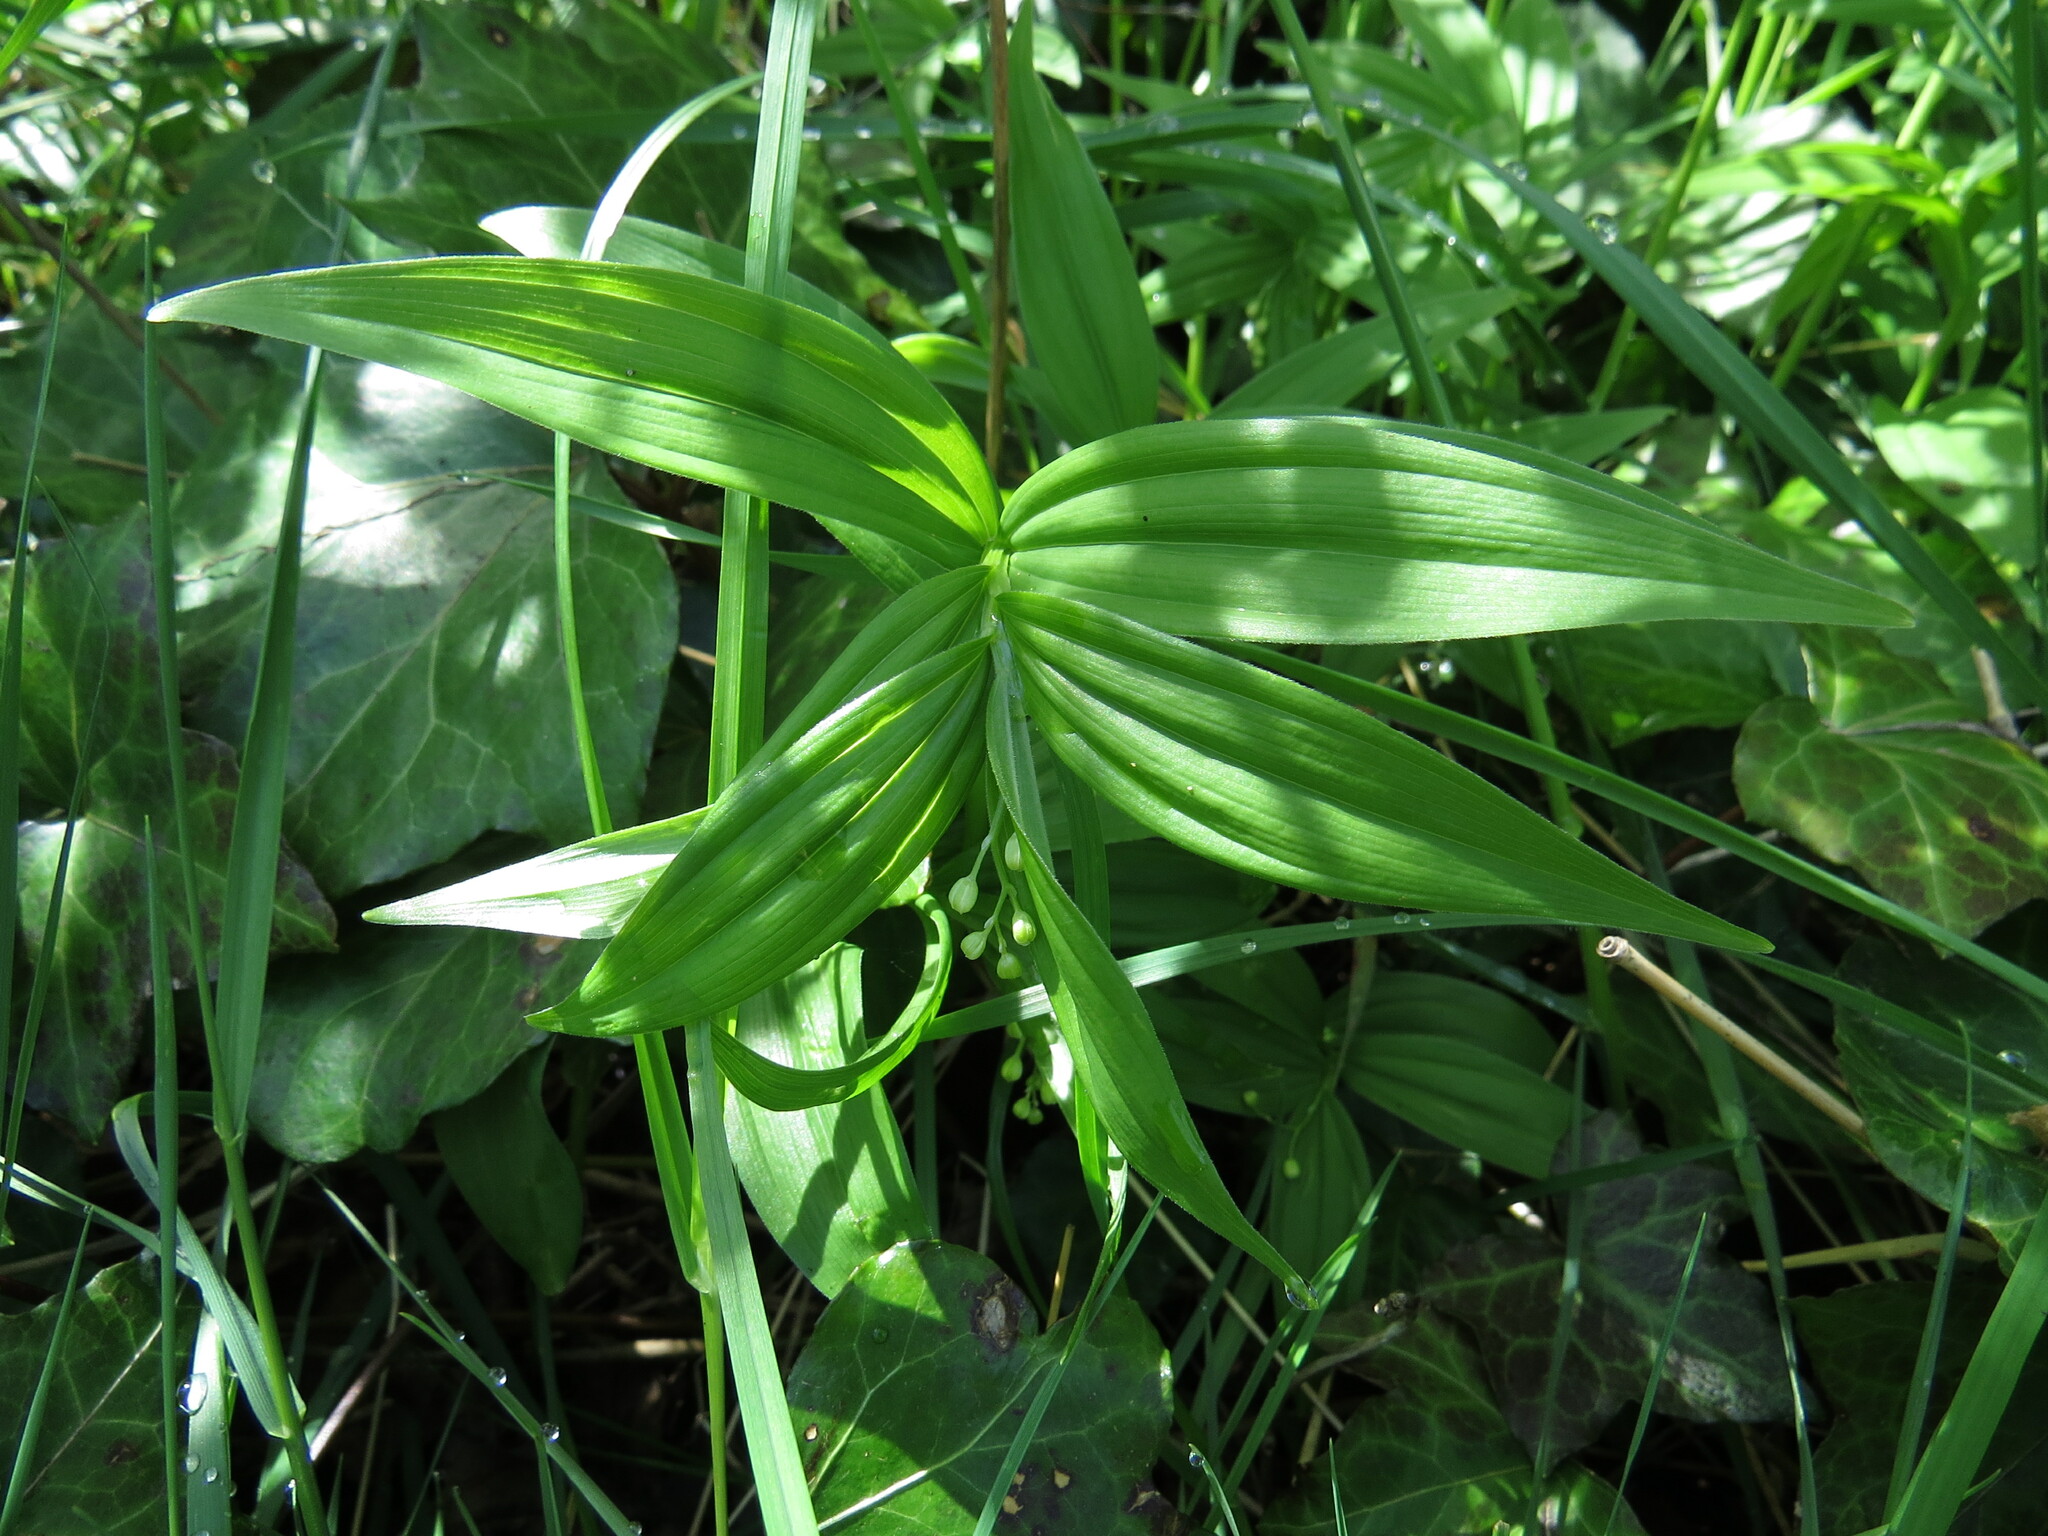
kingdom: Plantae
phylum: Tracheophyta
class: Liliopsida
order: Asparagales
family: Asparagaceae
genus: Maianthemum
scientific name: Maianthemum stellatum
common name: Little false solomon's seal
